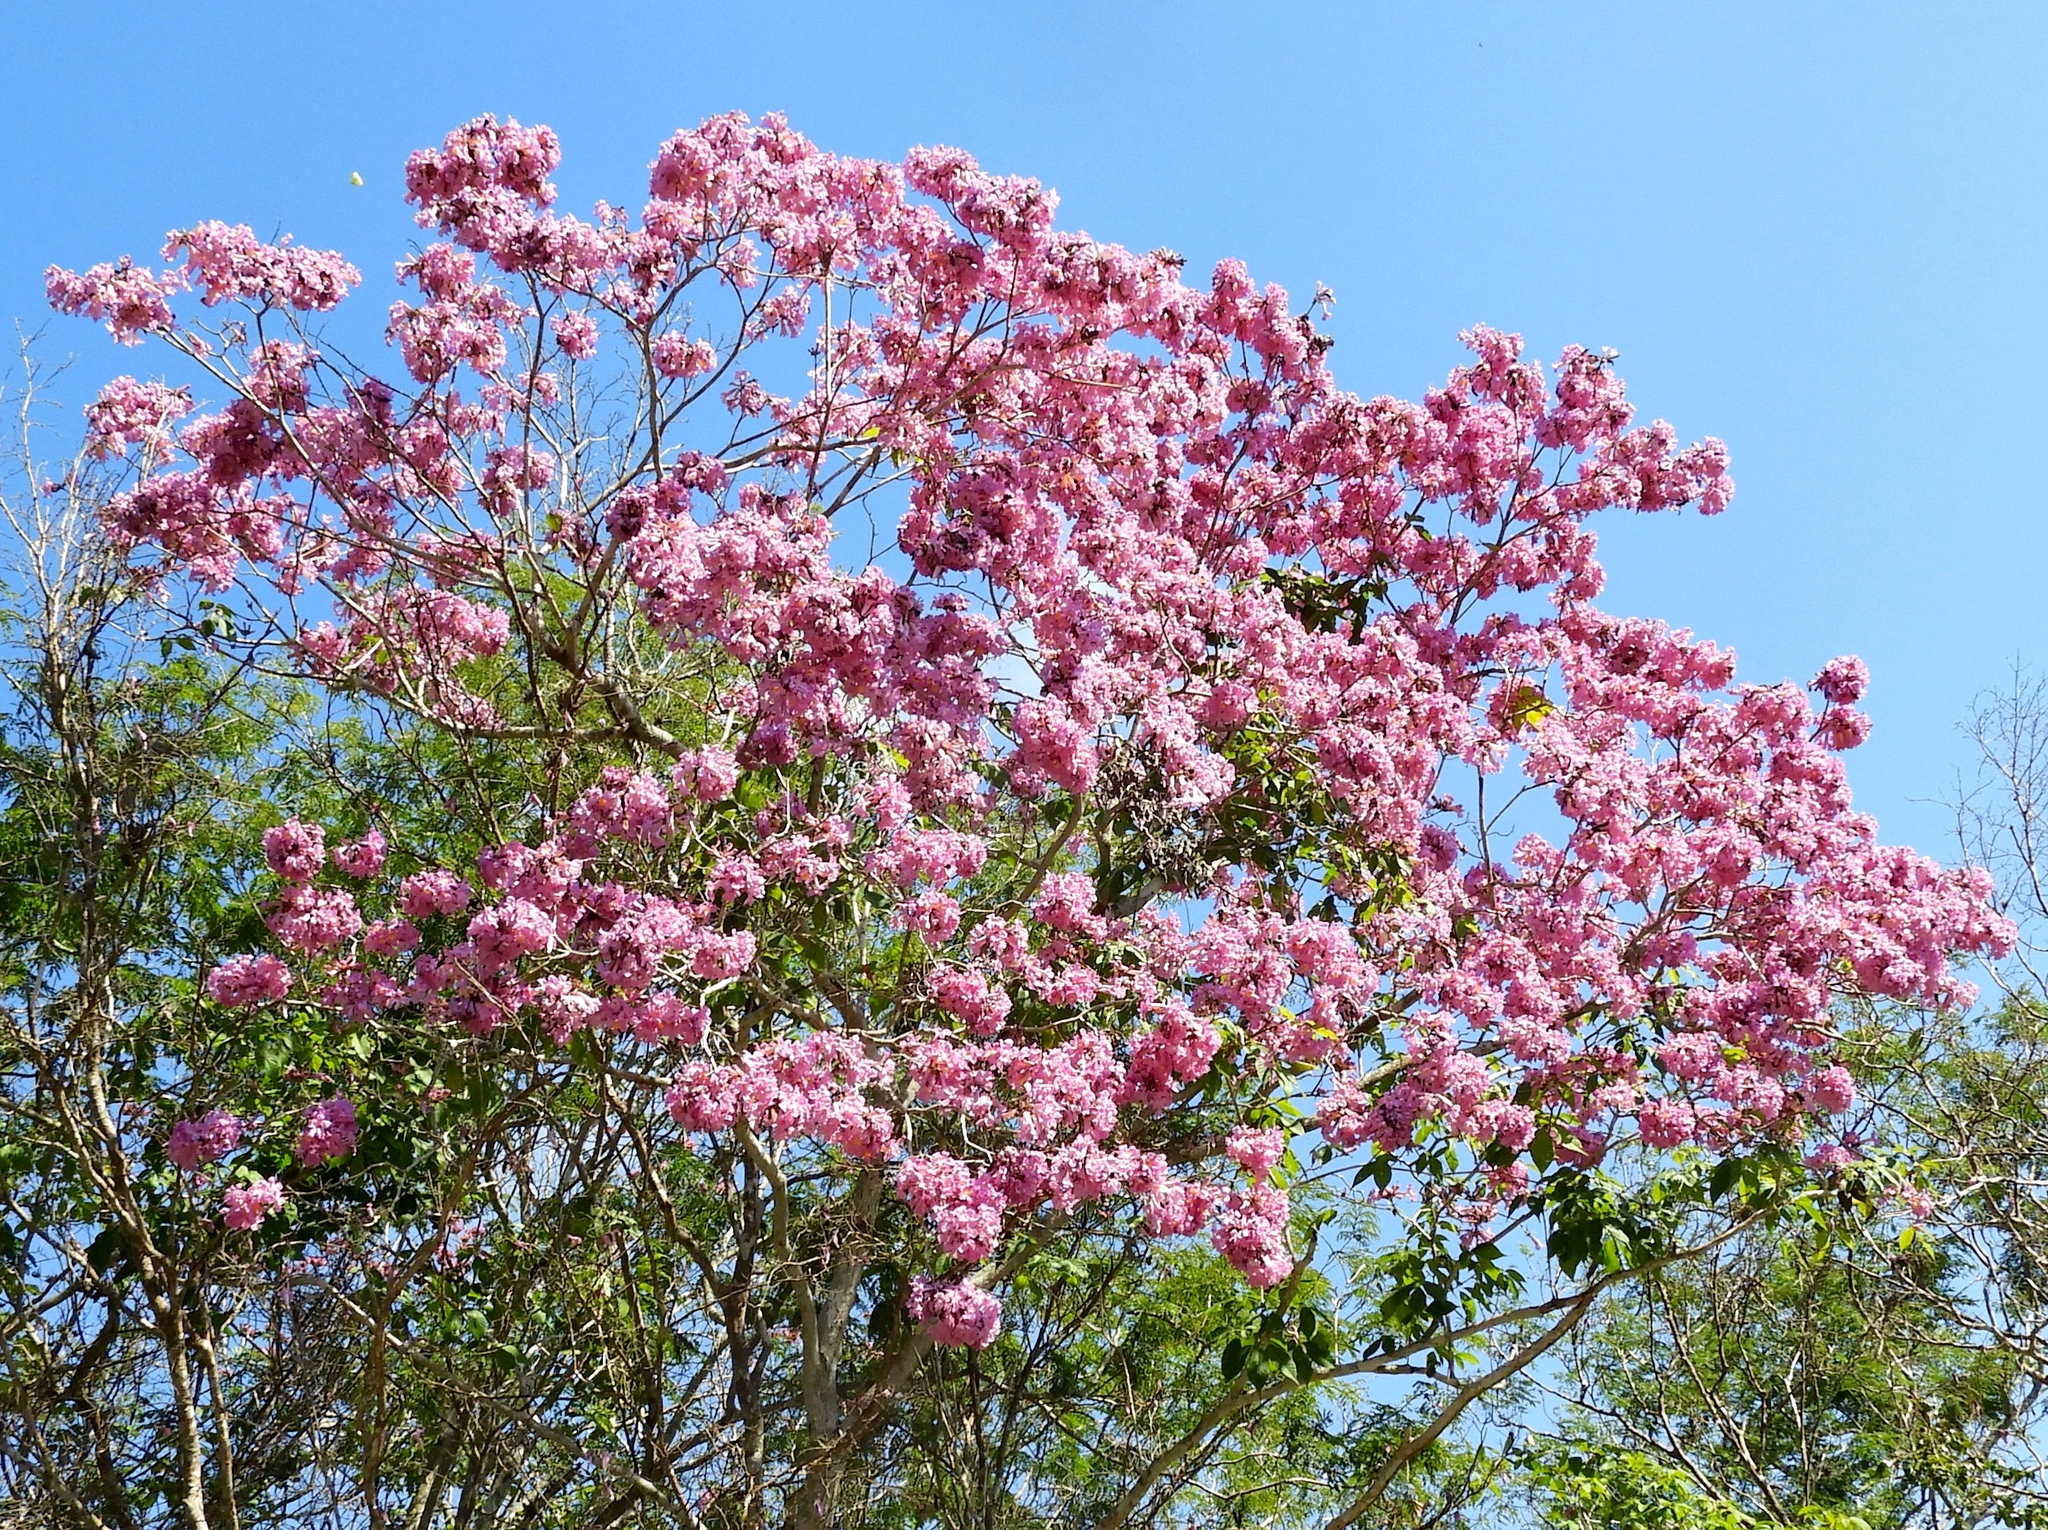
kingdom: Plantae
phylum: Tracheophyta
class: Magnoliopsida
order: Lamiales
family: Bignoniaceae
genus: Handroanthus
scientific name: Handroanthus impetiginosum
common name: Pink trumpet tree
